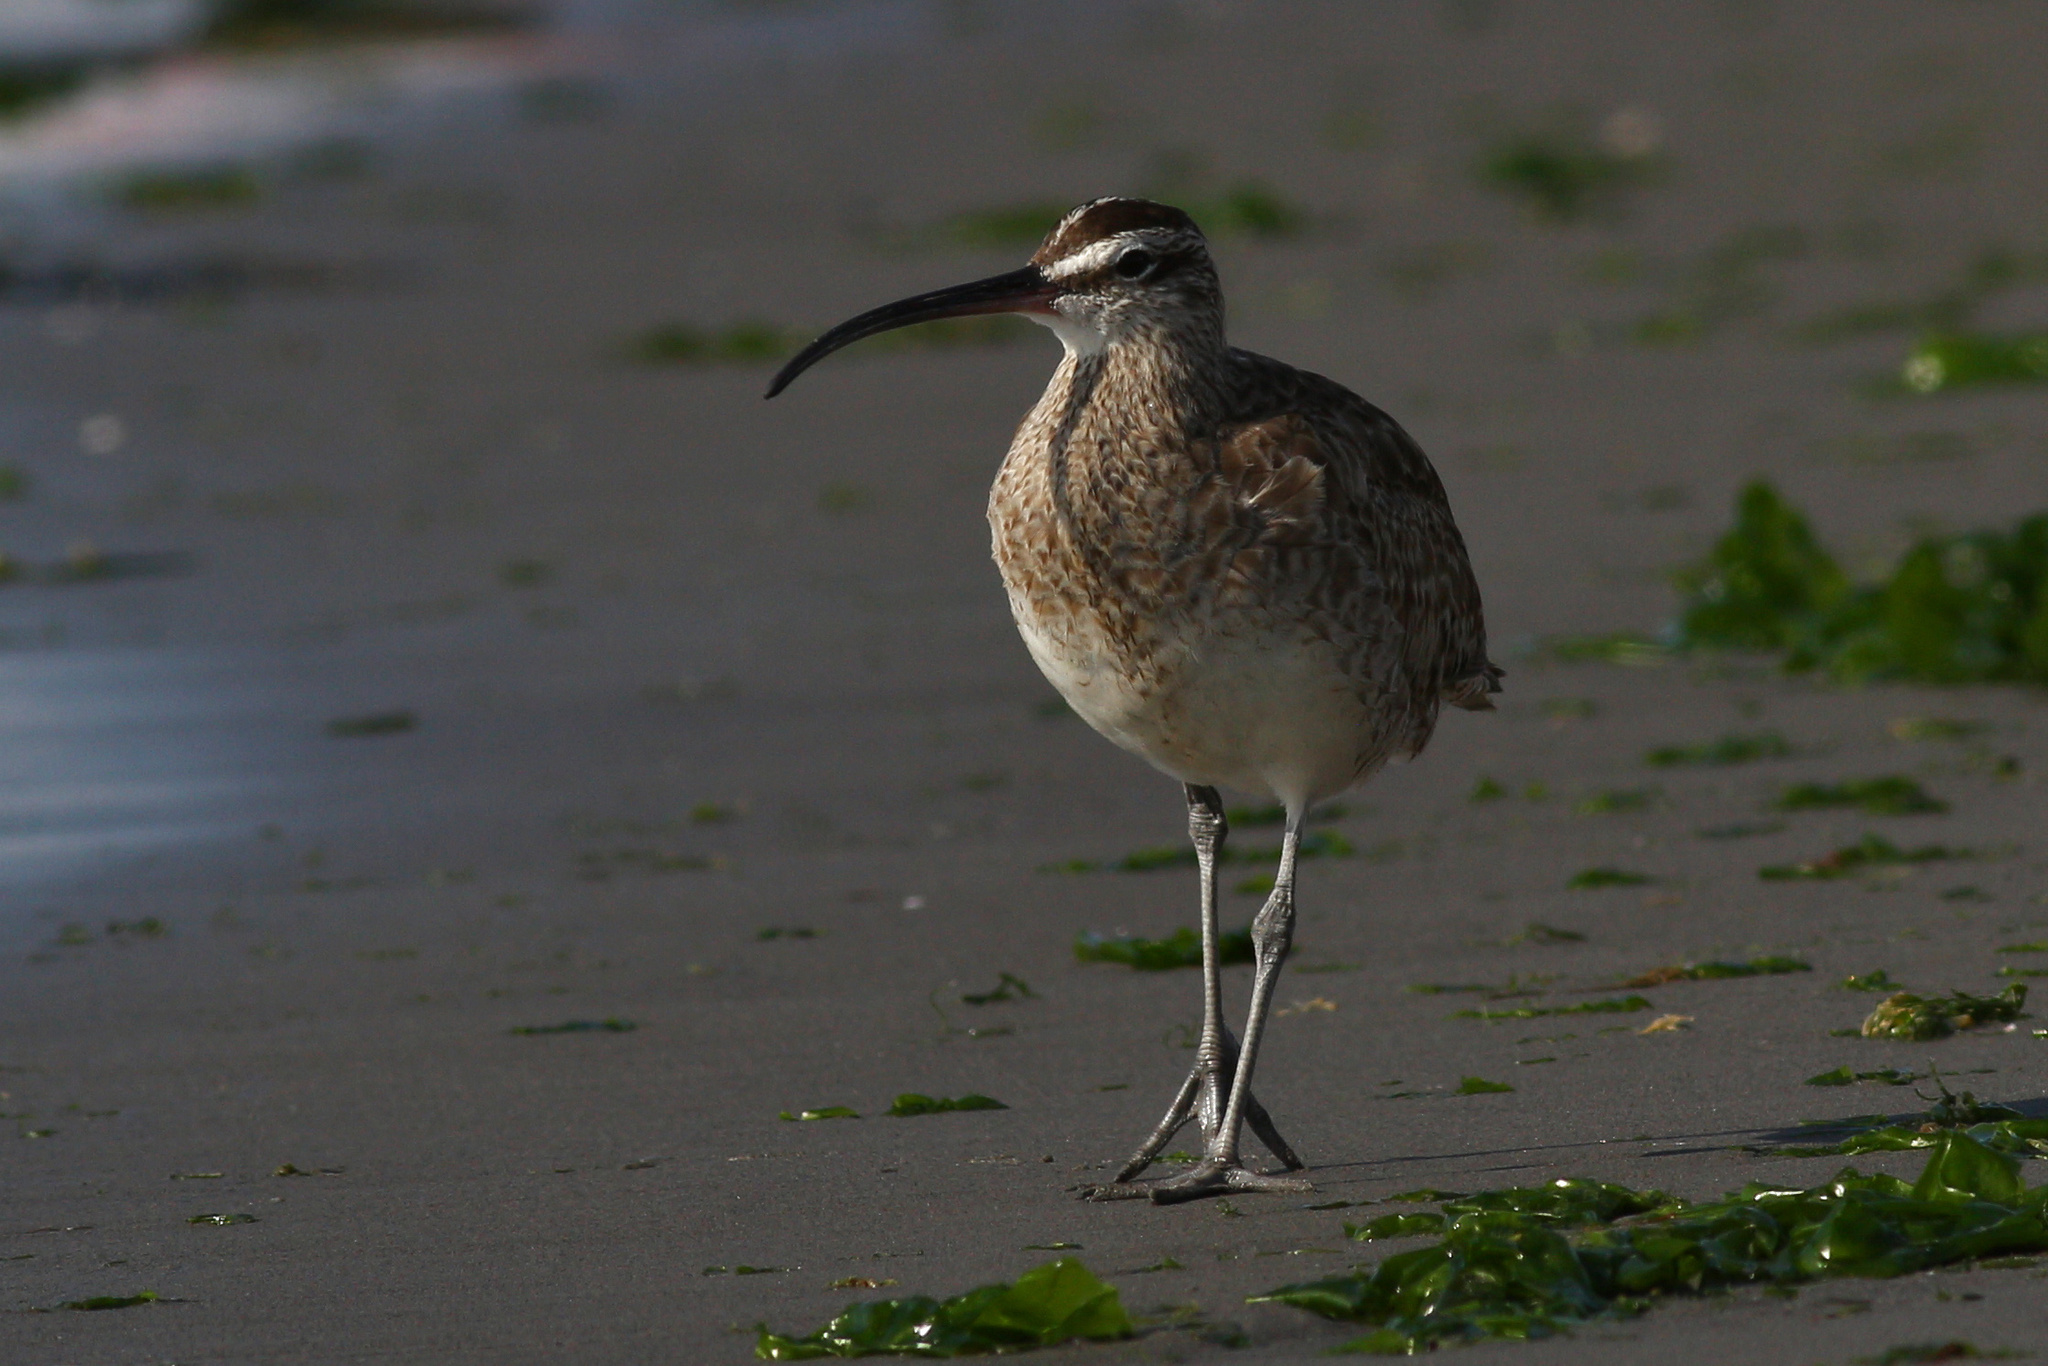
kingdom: Animalia
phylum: Chordata
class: Aves
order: Charadriiformes
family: Scolopacidae
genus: Numenius
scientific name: Numenius phaeopus
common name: Whimbrel
